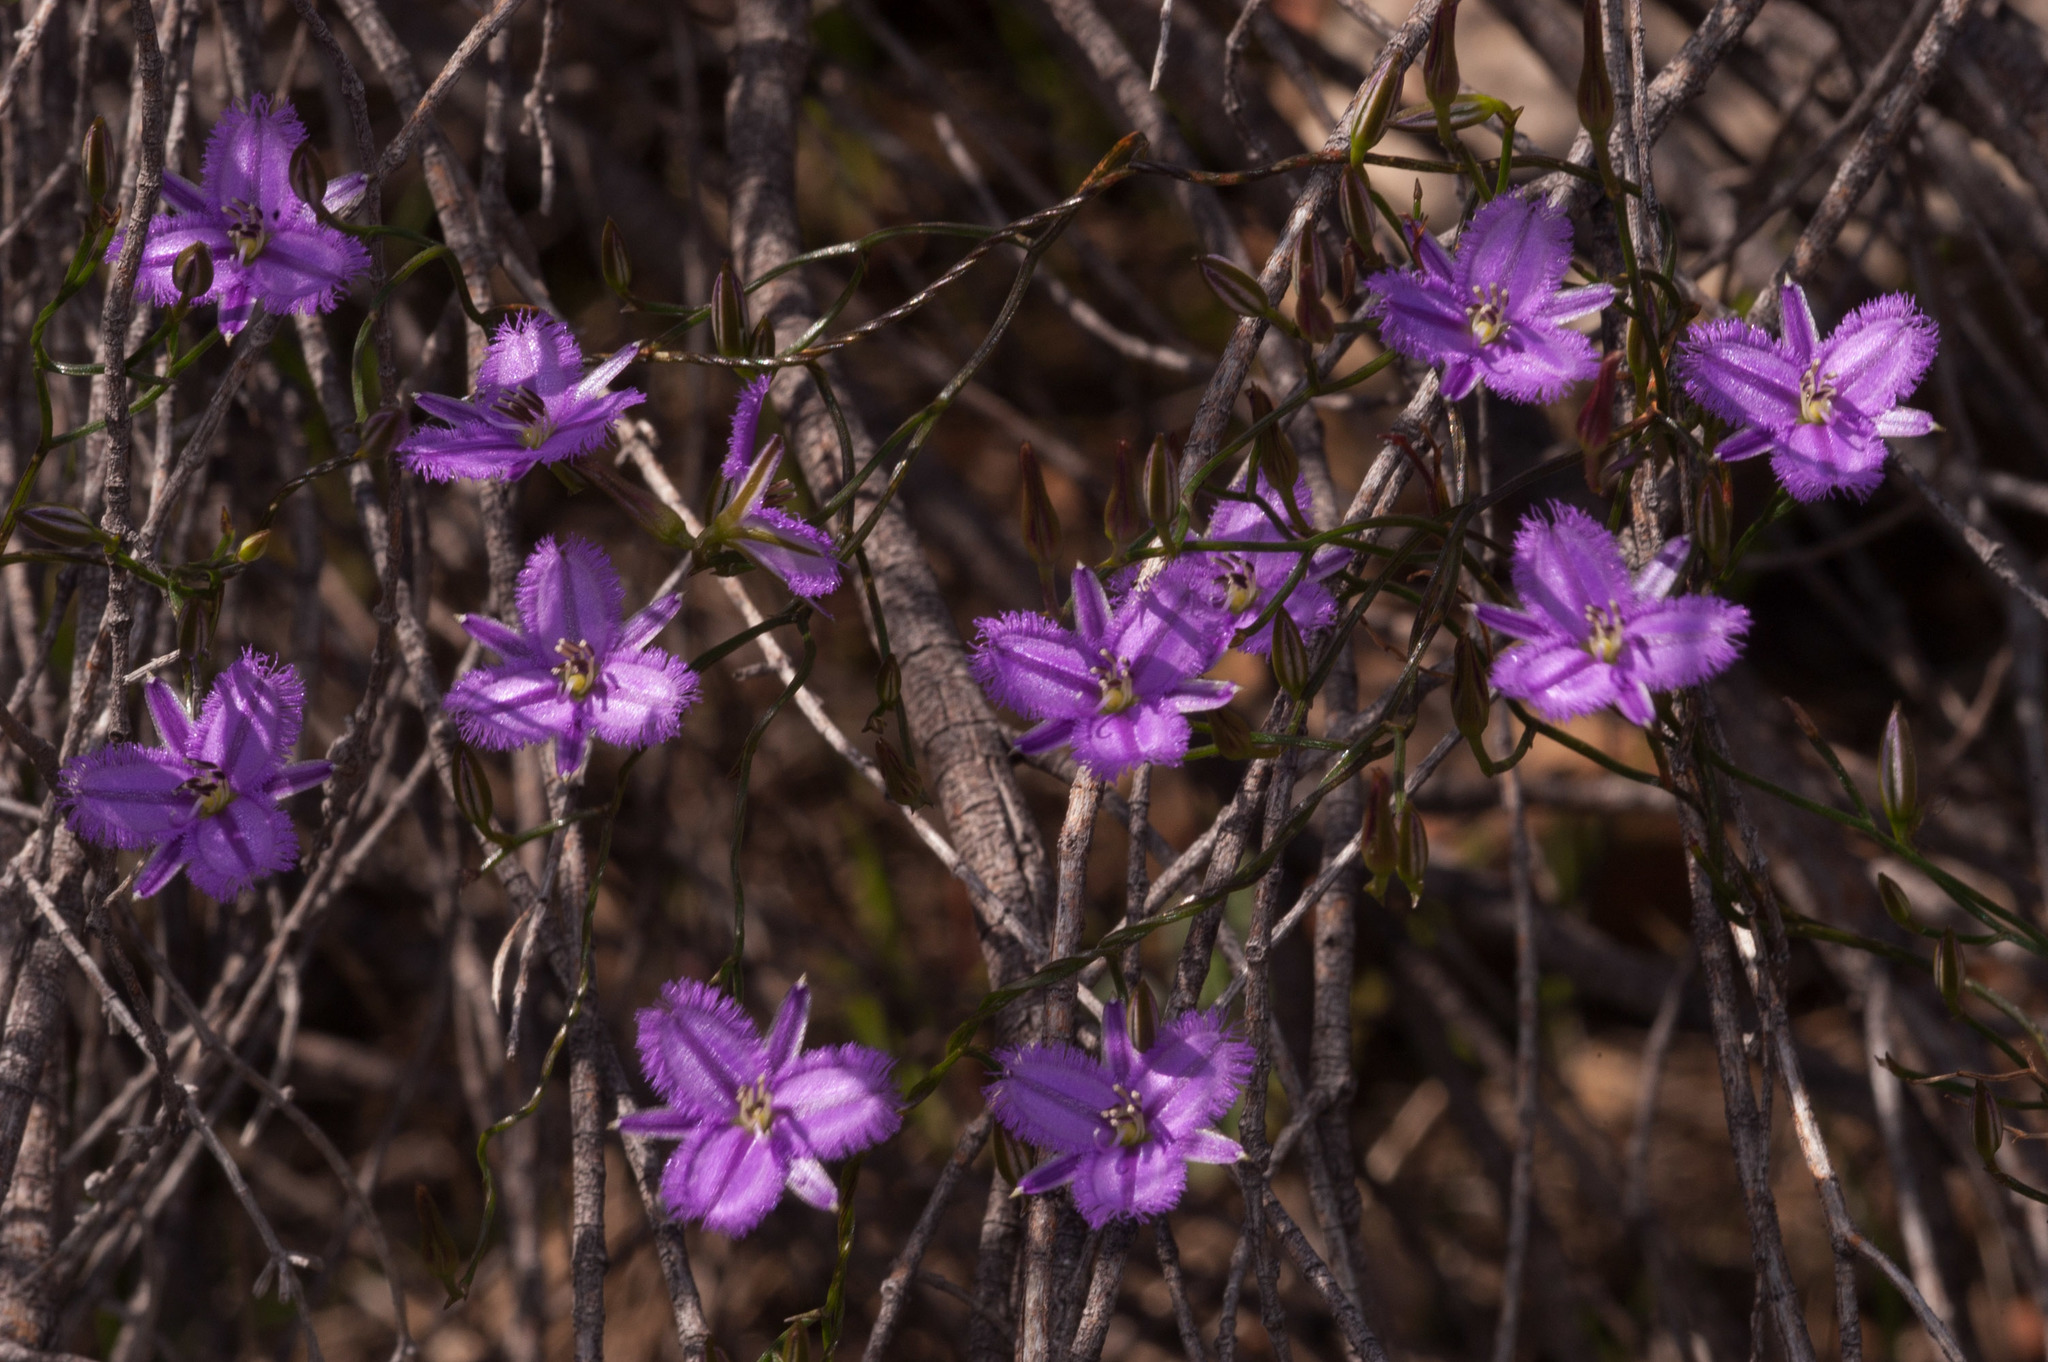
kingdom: Plantae
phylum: Tracheophyta
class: Liliopsida
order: Asparagales
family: Asparagaceae
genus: Thysanotus
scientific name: Thysanotus patersonii
